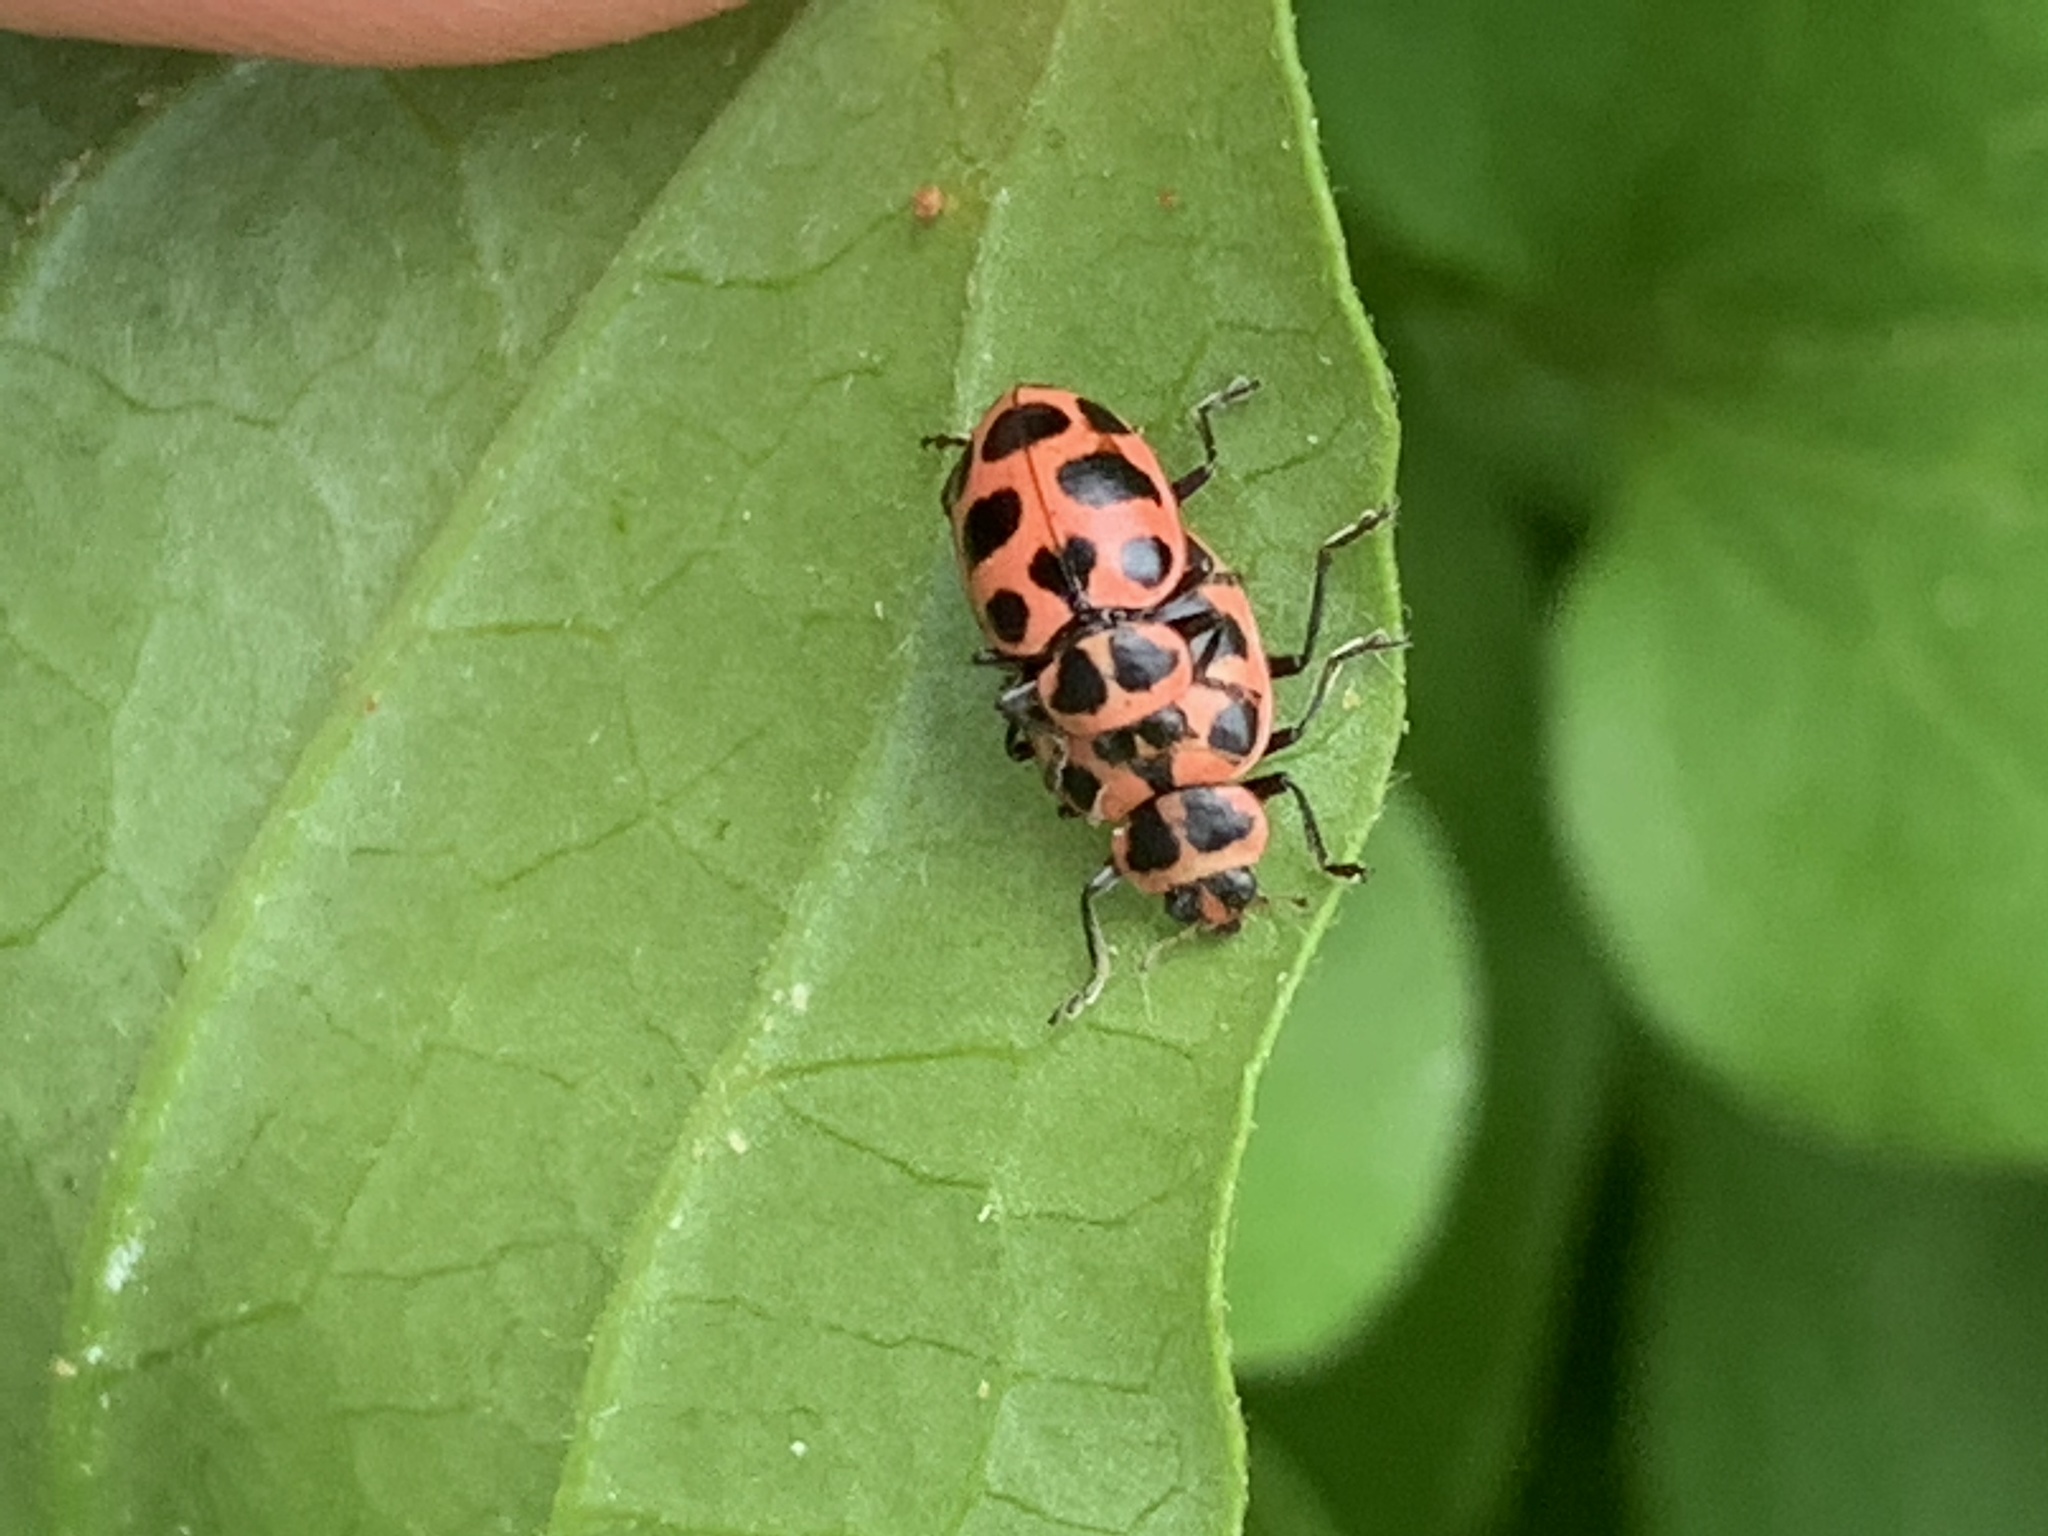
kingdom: Animalia
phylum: Arthropoda
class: Insecta
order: Coleoptera
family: Coccinellidae
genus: Coleomegilla
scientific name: Coleomegilla maculata
